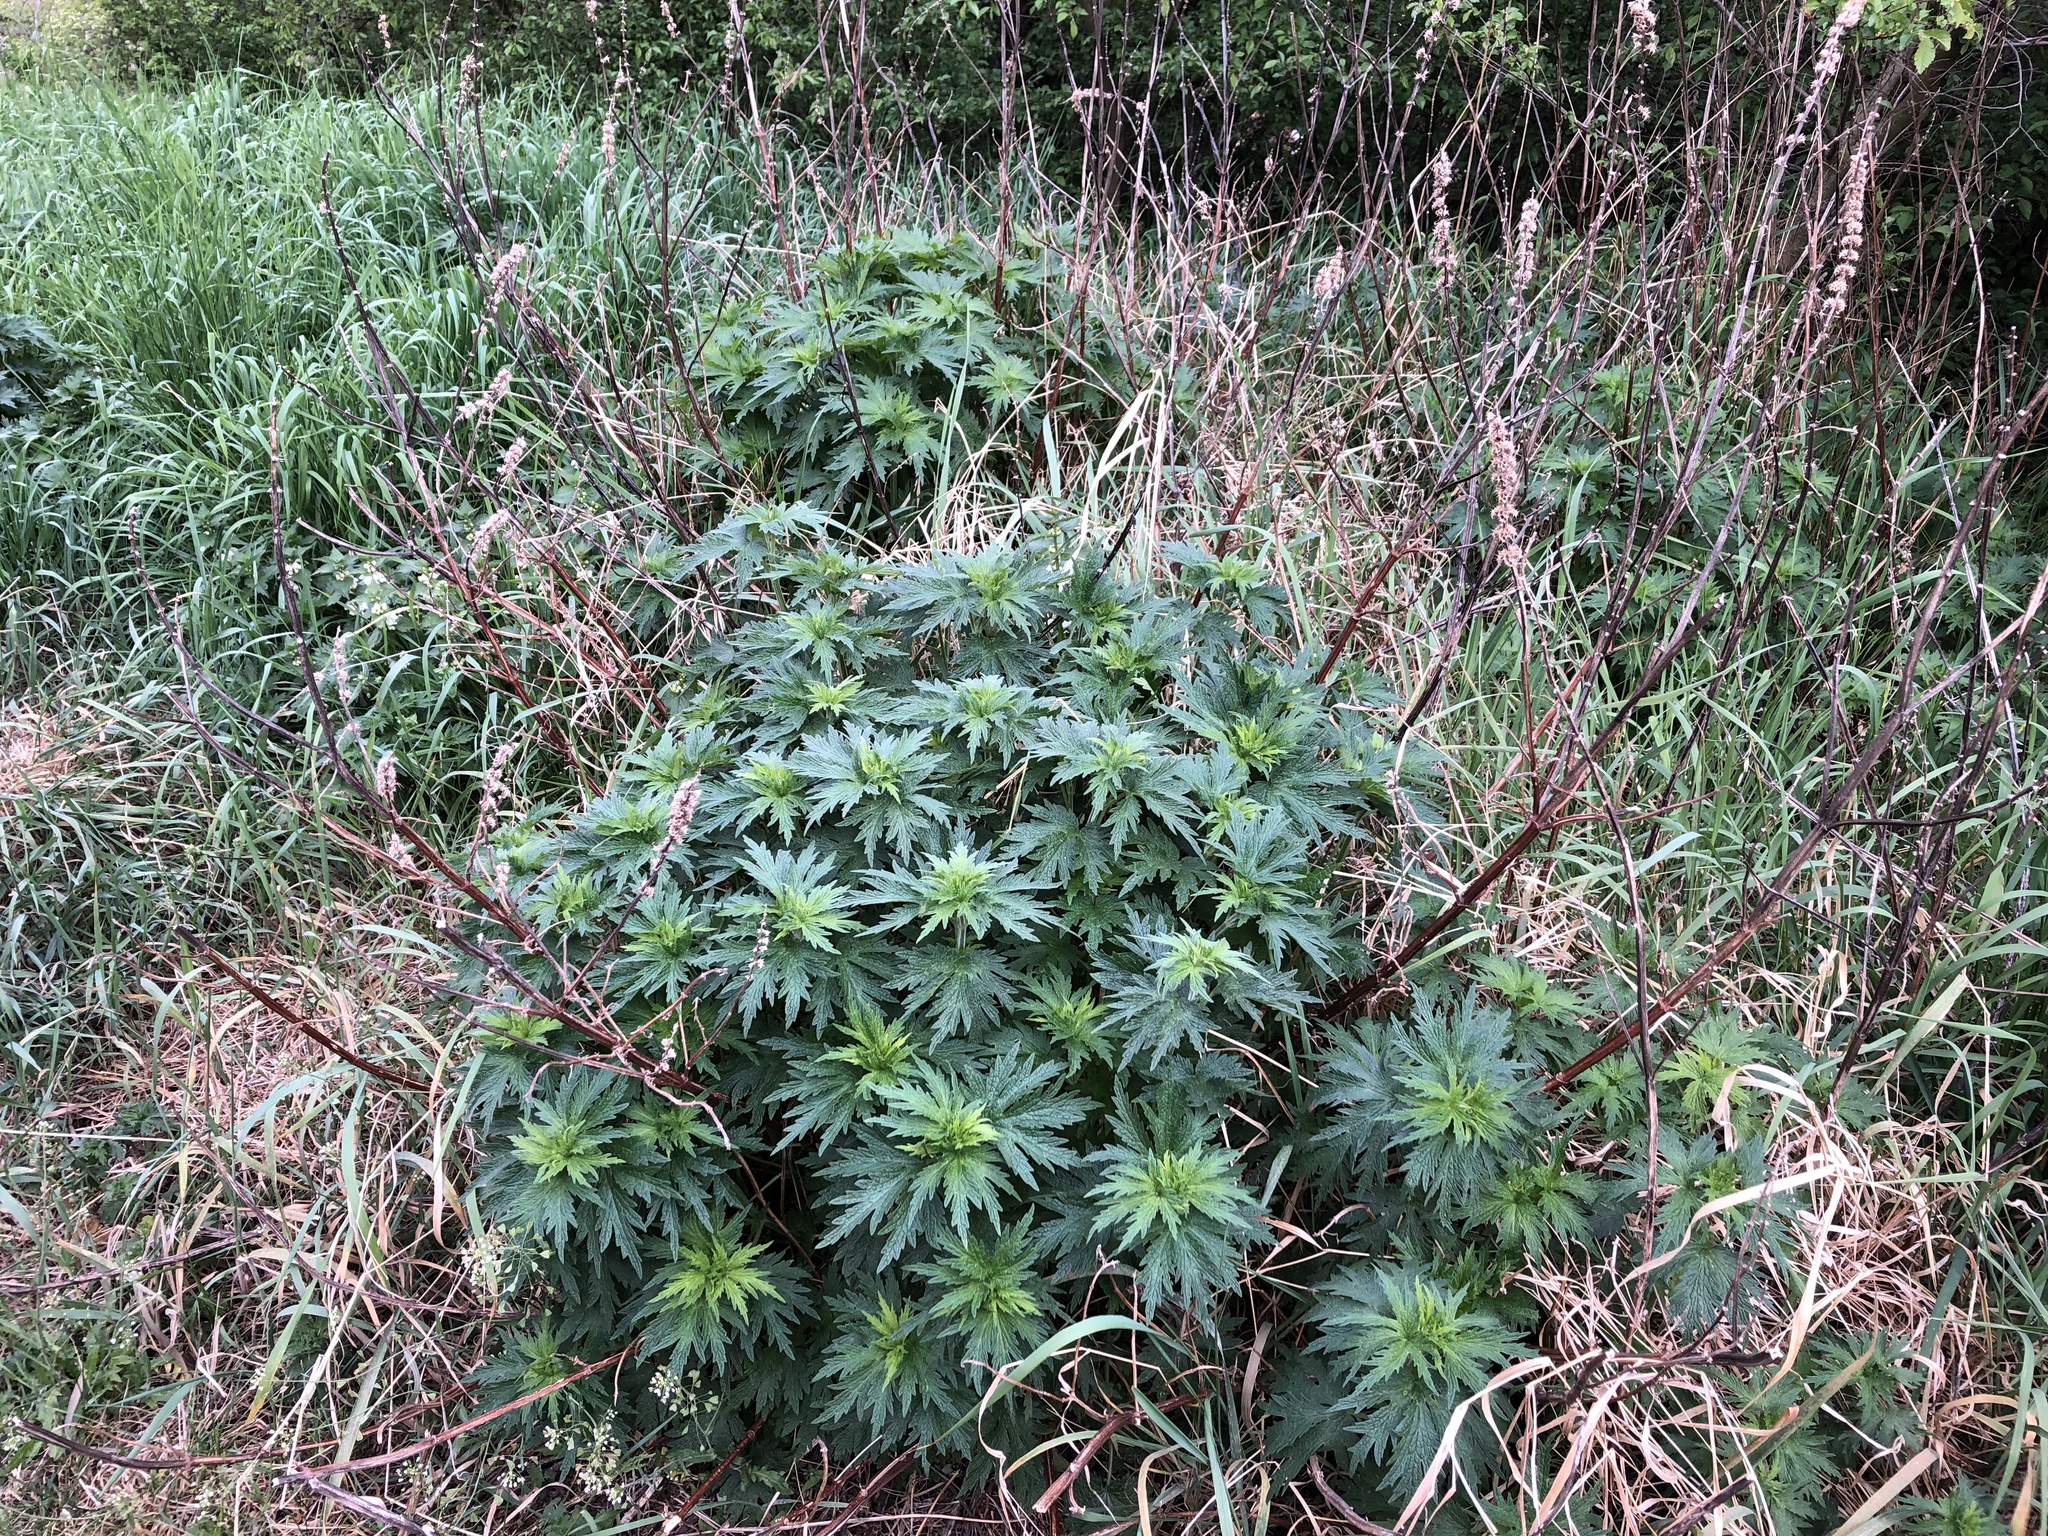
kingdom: Plantae
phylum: Tracheophyta
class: Magnoliopsida
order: Lamiales
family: Lamiaceae
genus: Leonurus
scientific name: Leonurus cardiaca
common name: Motherwort
